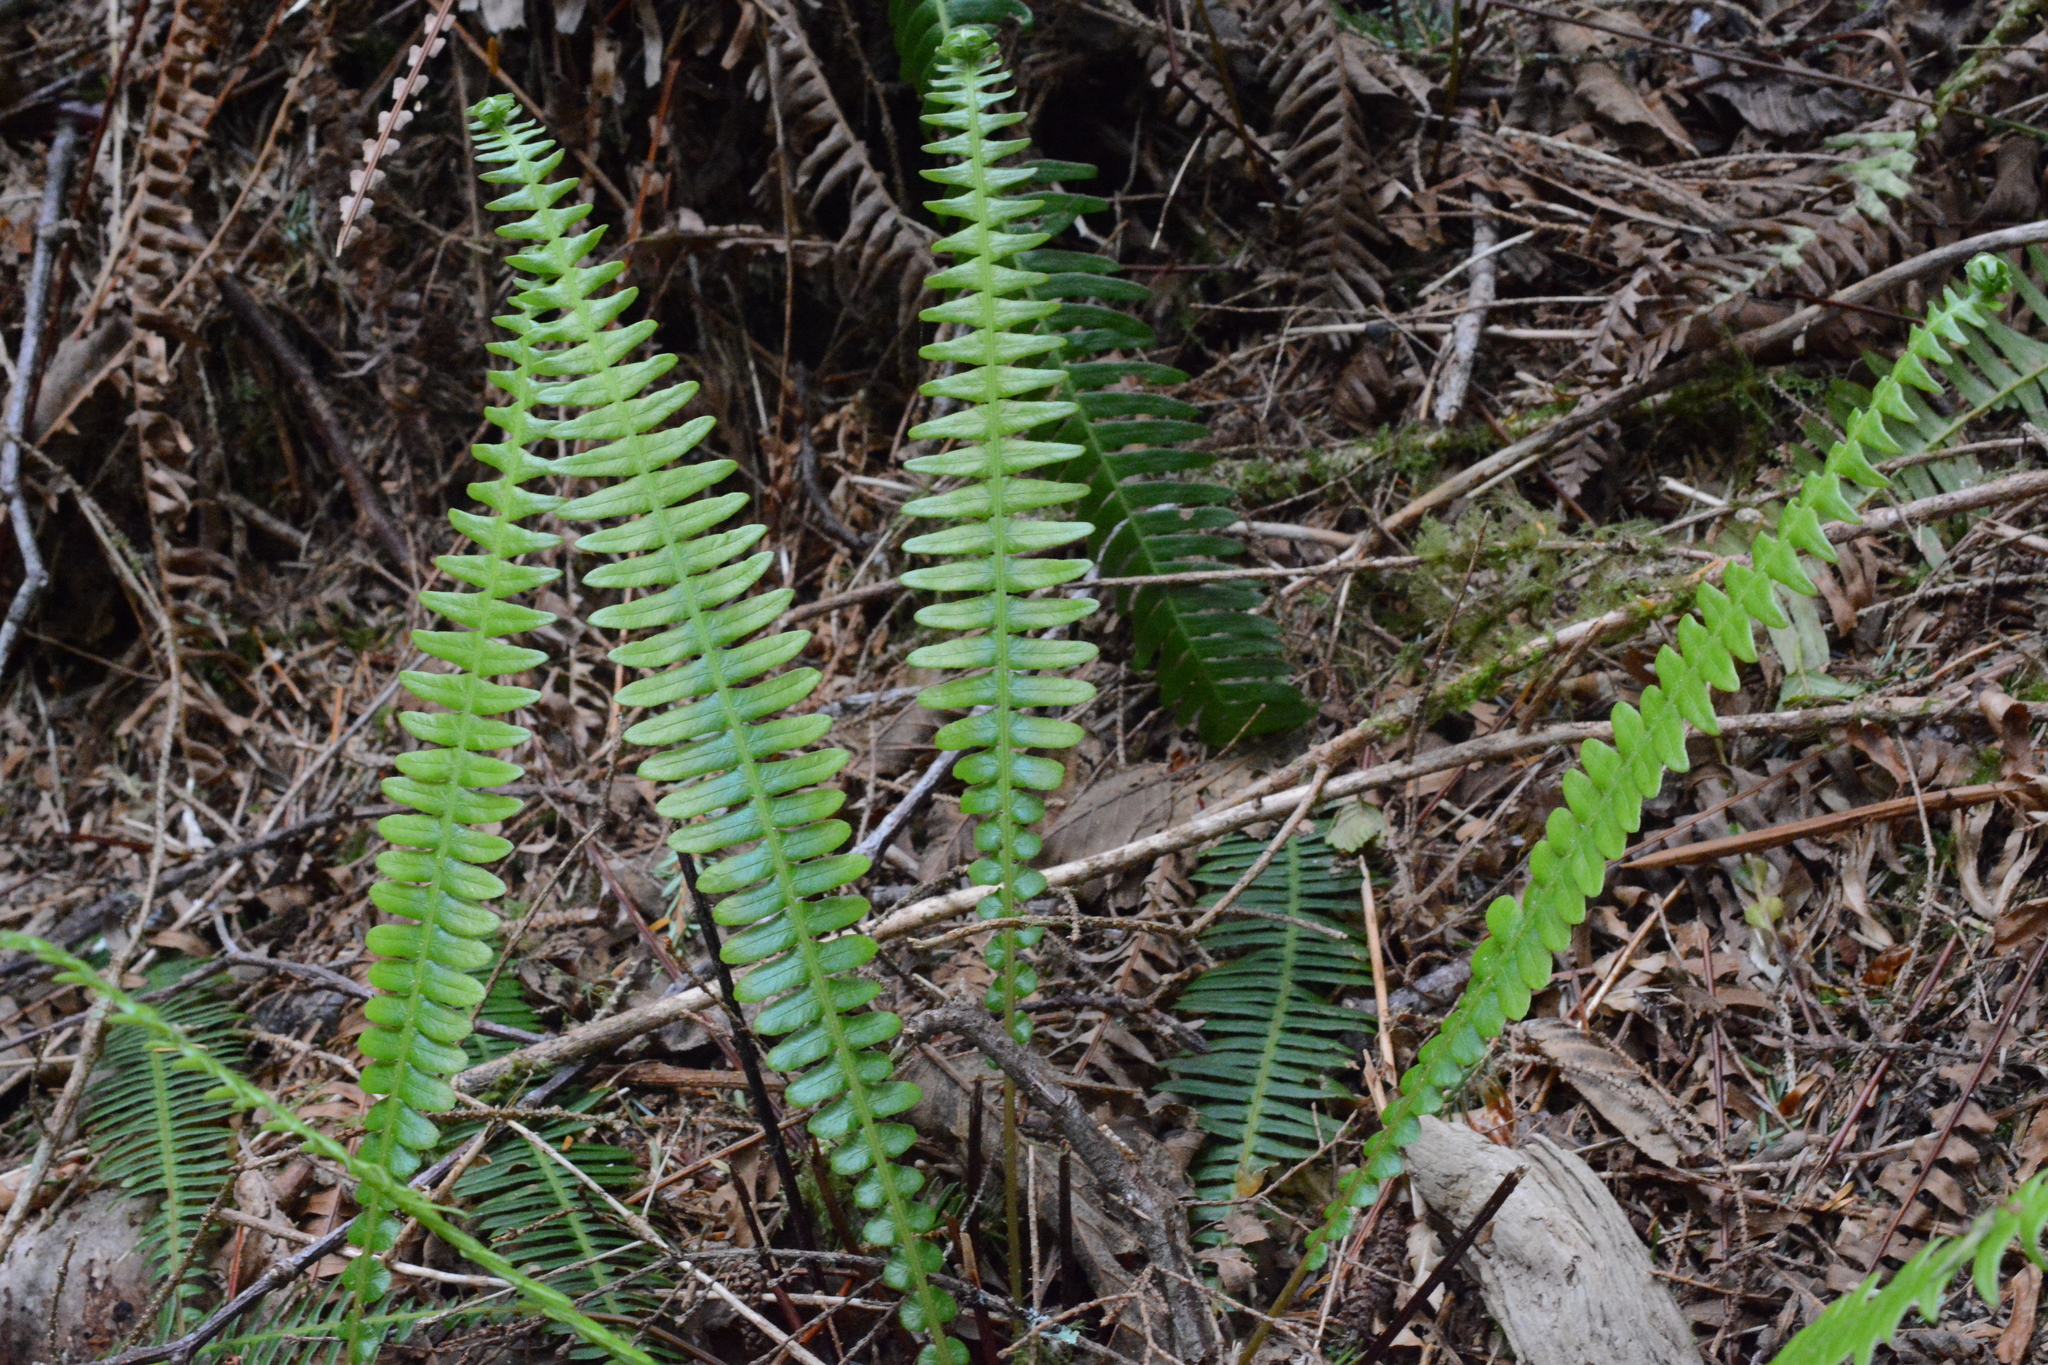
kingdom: Plantae
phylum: Tracheophyta
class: Polypodiopsida
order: Polypodiales
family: Blechnaceae
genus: Struthiopteris
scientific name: Struthiopteris spicant
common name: Deer fern
